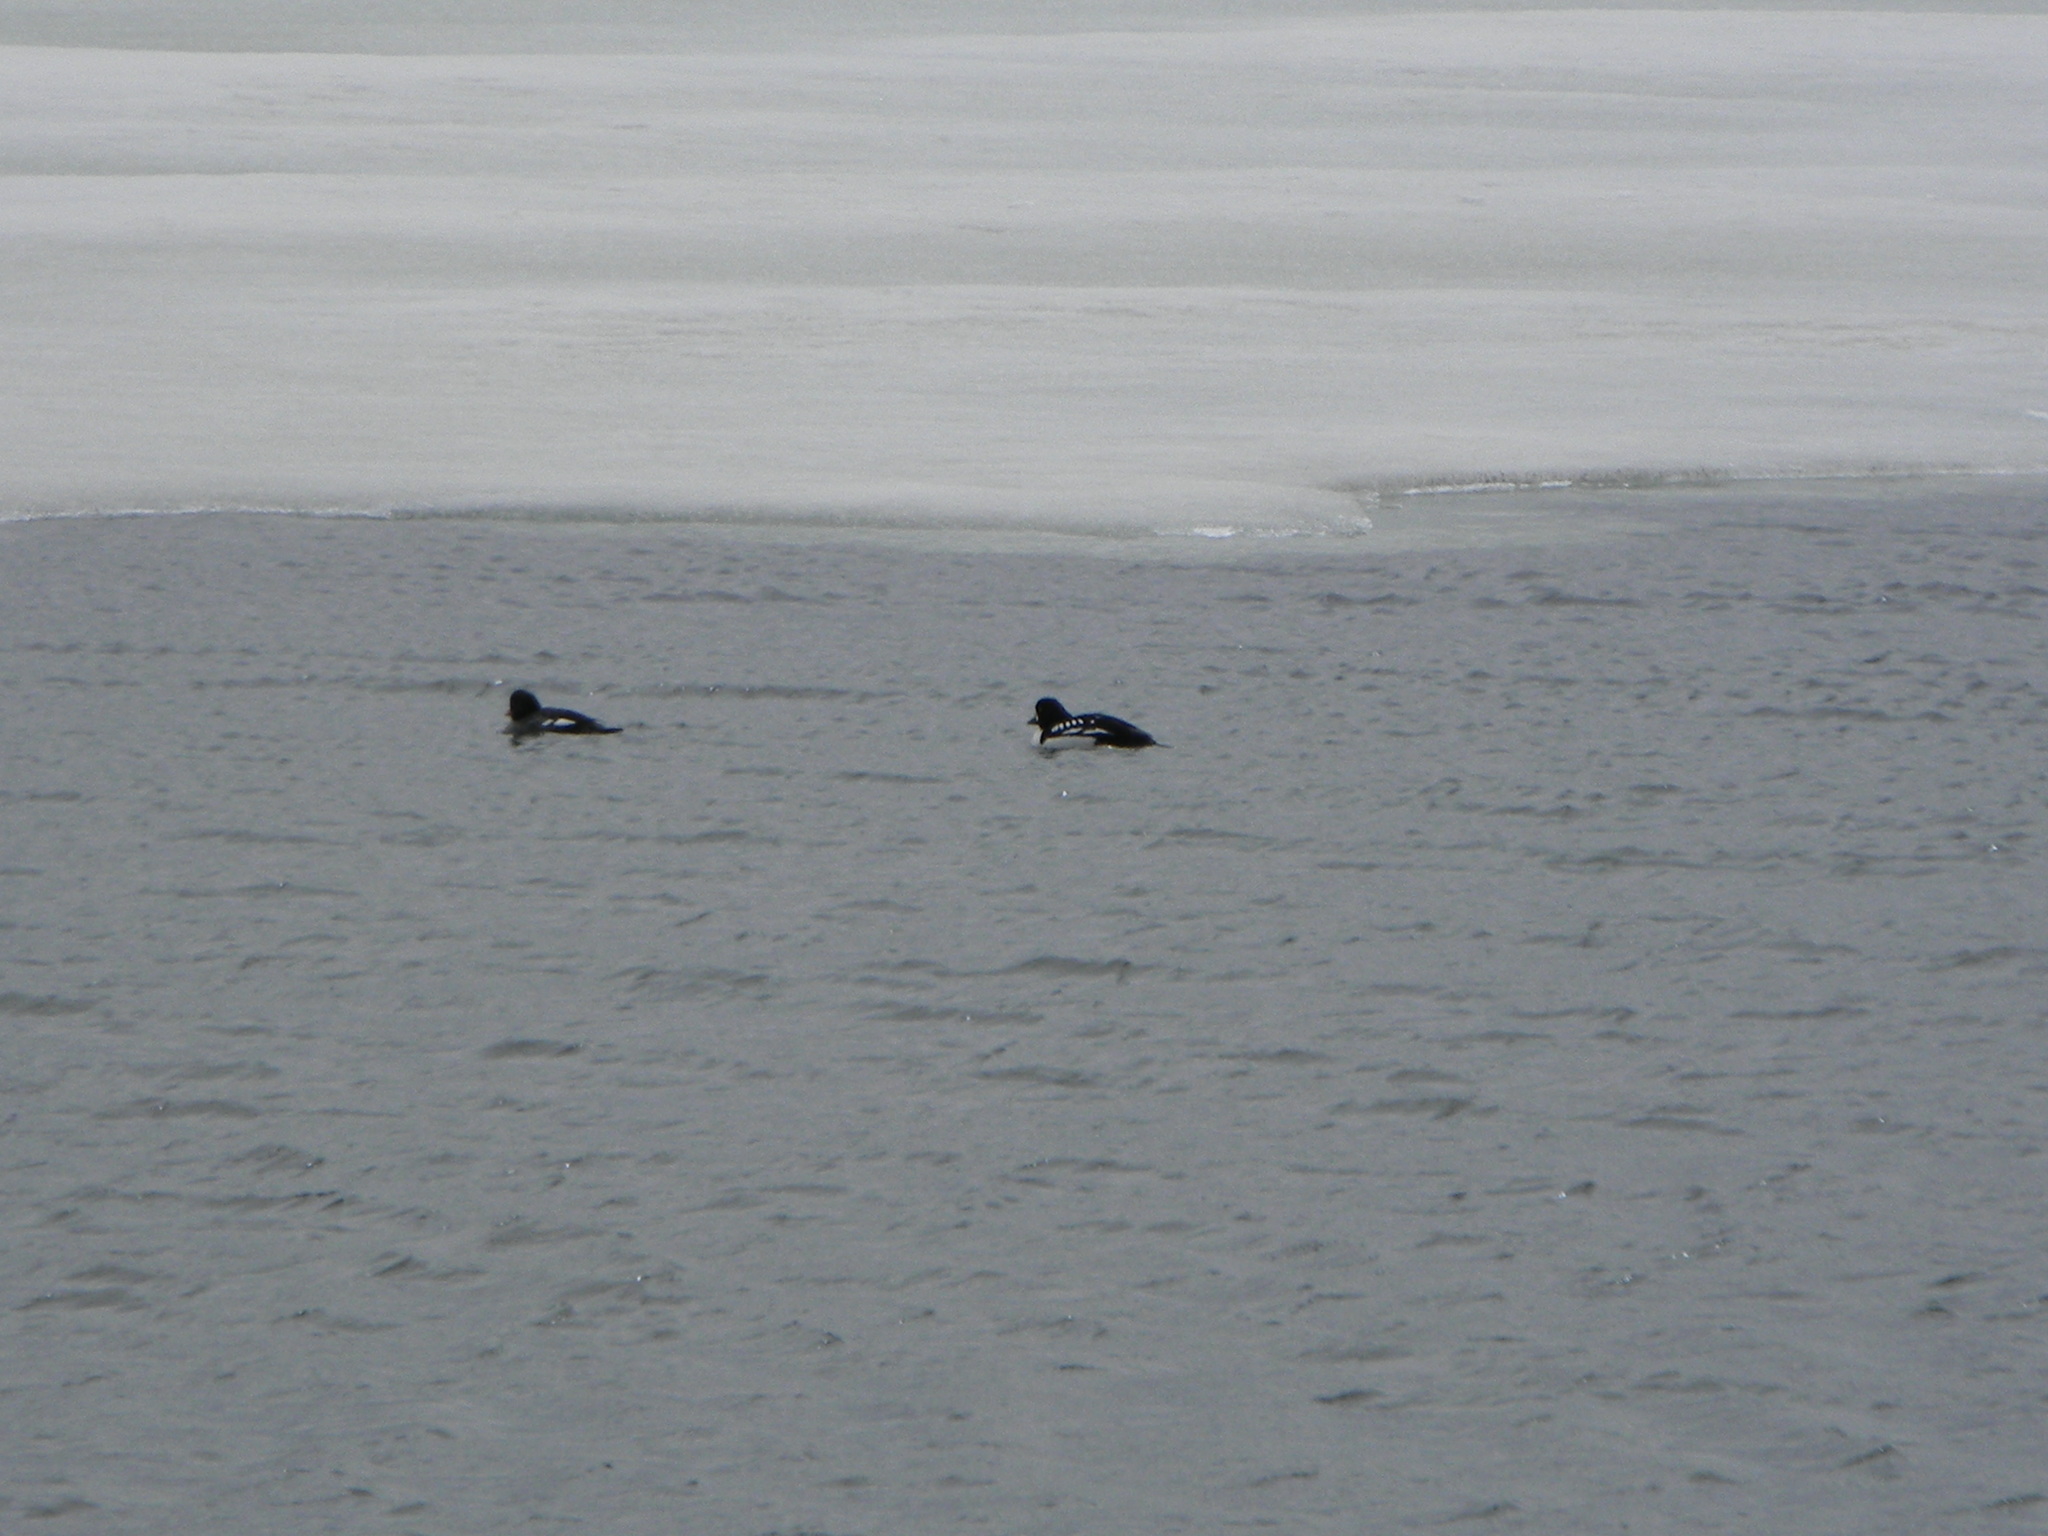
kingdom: Animalia
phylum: Chordata
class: Aves
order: Anseriformes
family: Anatidae
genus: Bucephala
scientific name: Bucephala islandica
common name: Barrow's goldeneye
